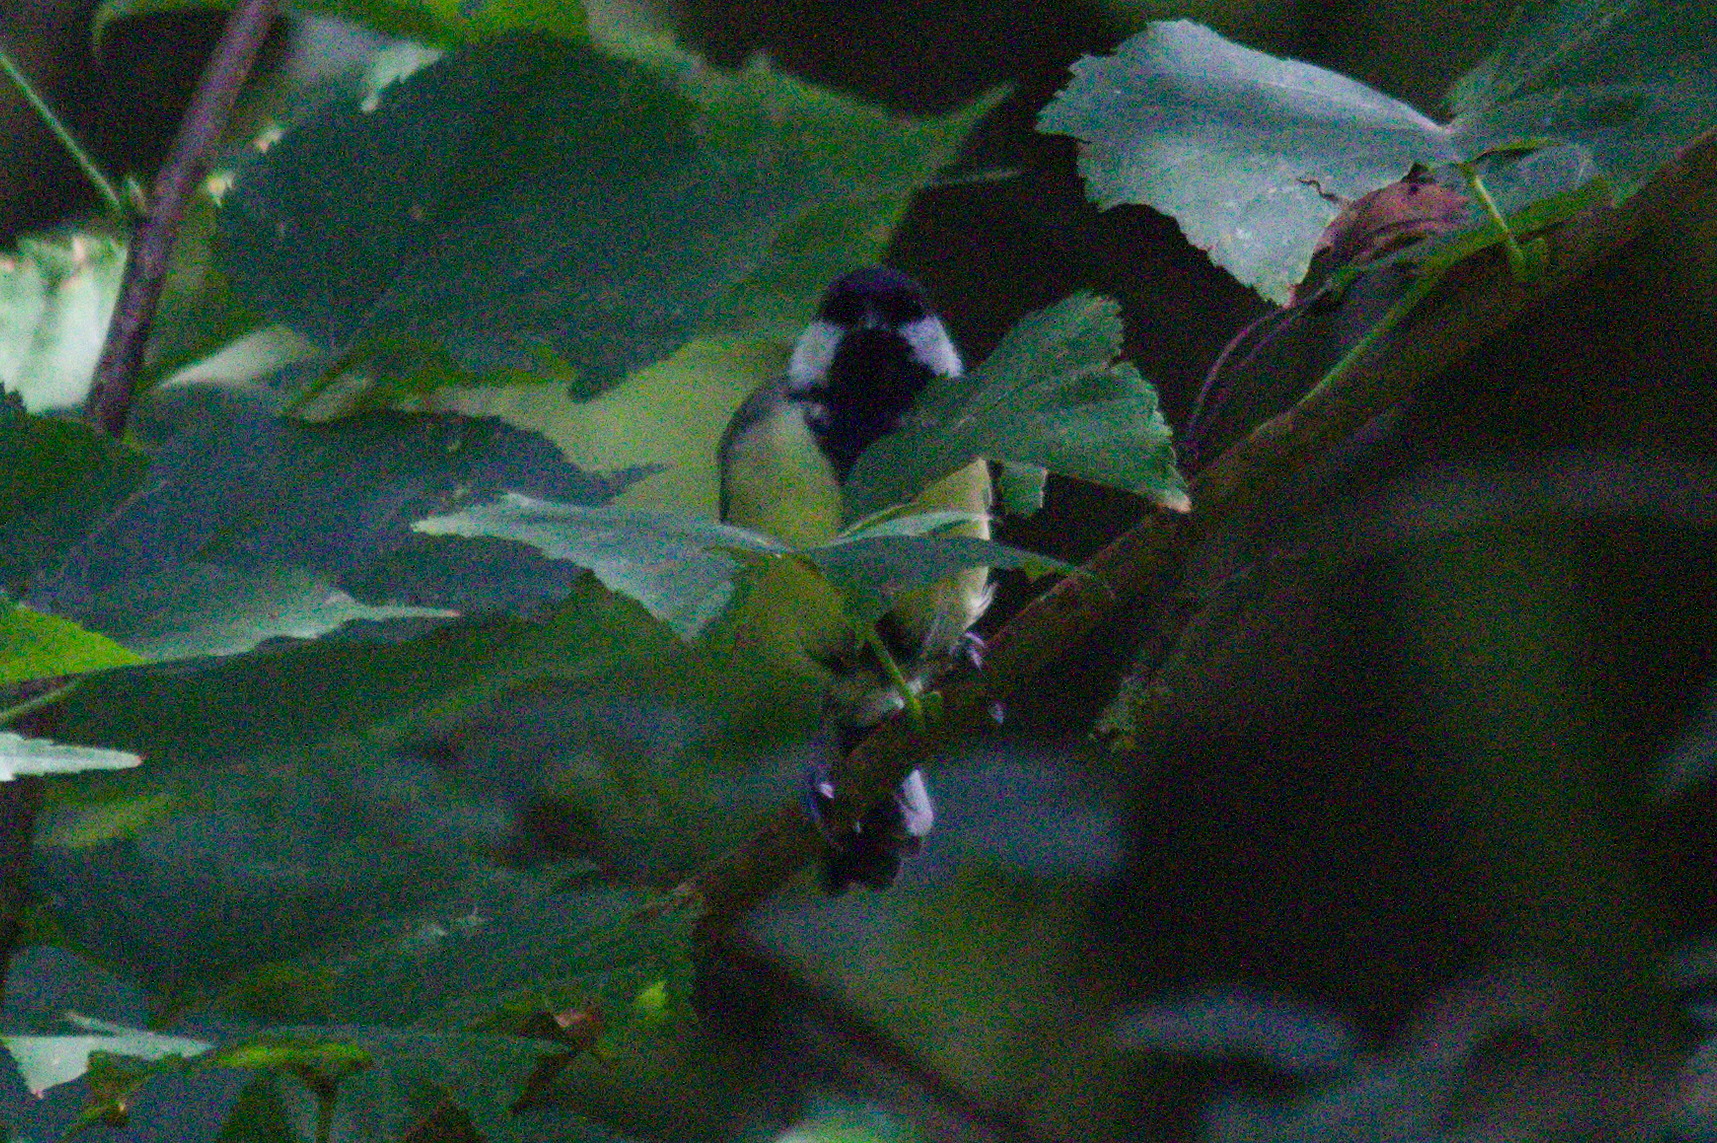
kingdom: Animalia
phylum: Chordata
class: Aves
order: Passeriformes
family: Paridae
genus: Parus
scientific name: Parus major
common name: Great tit
